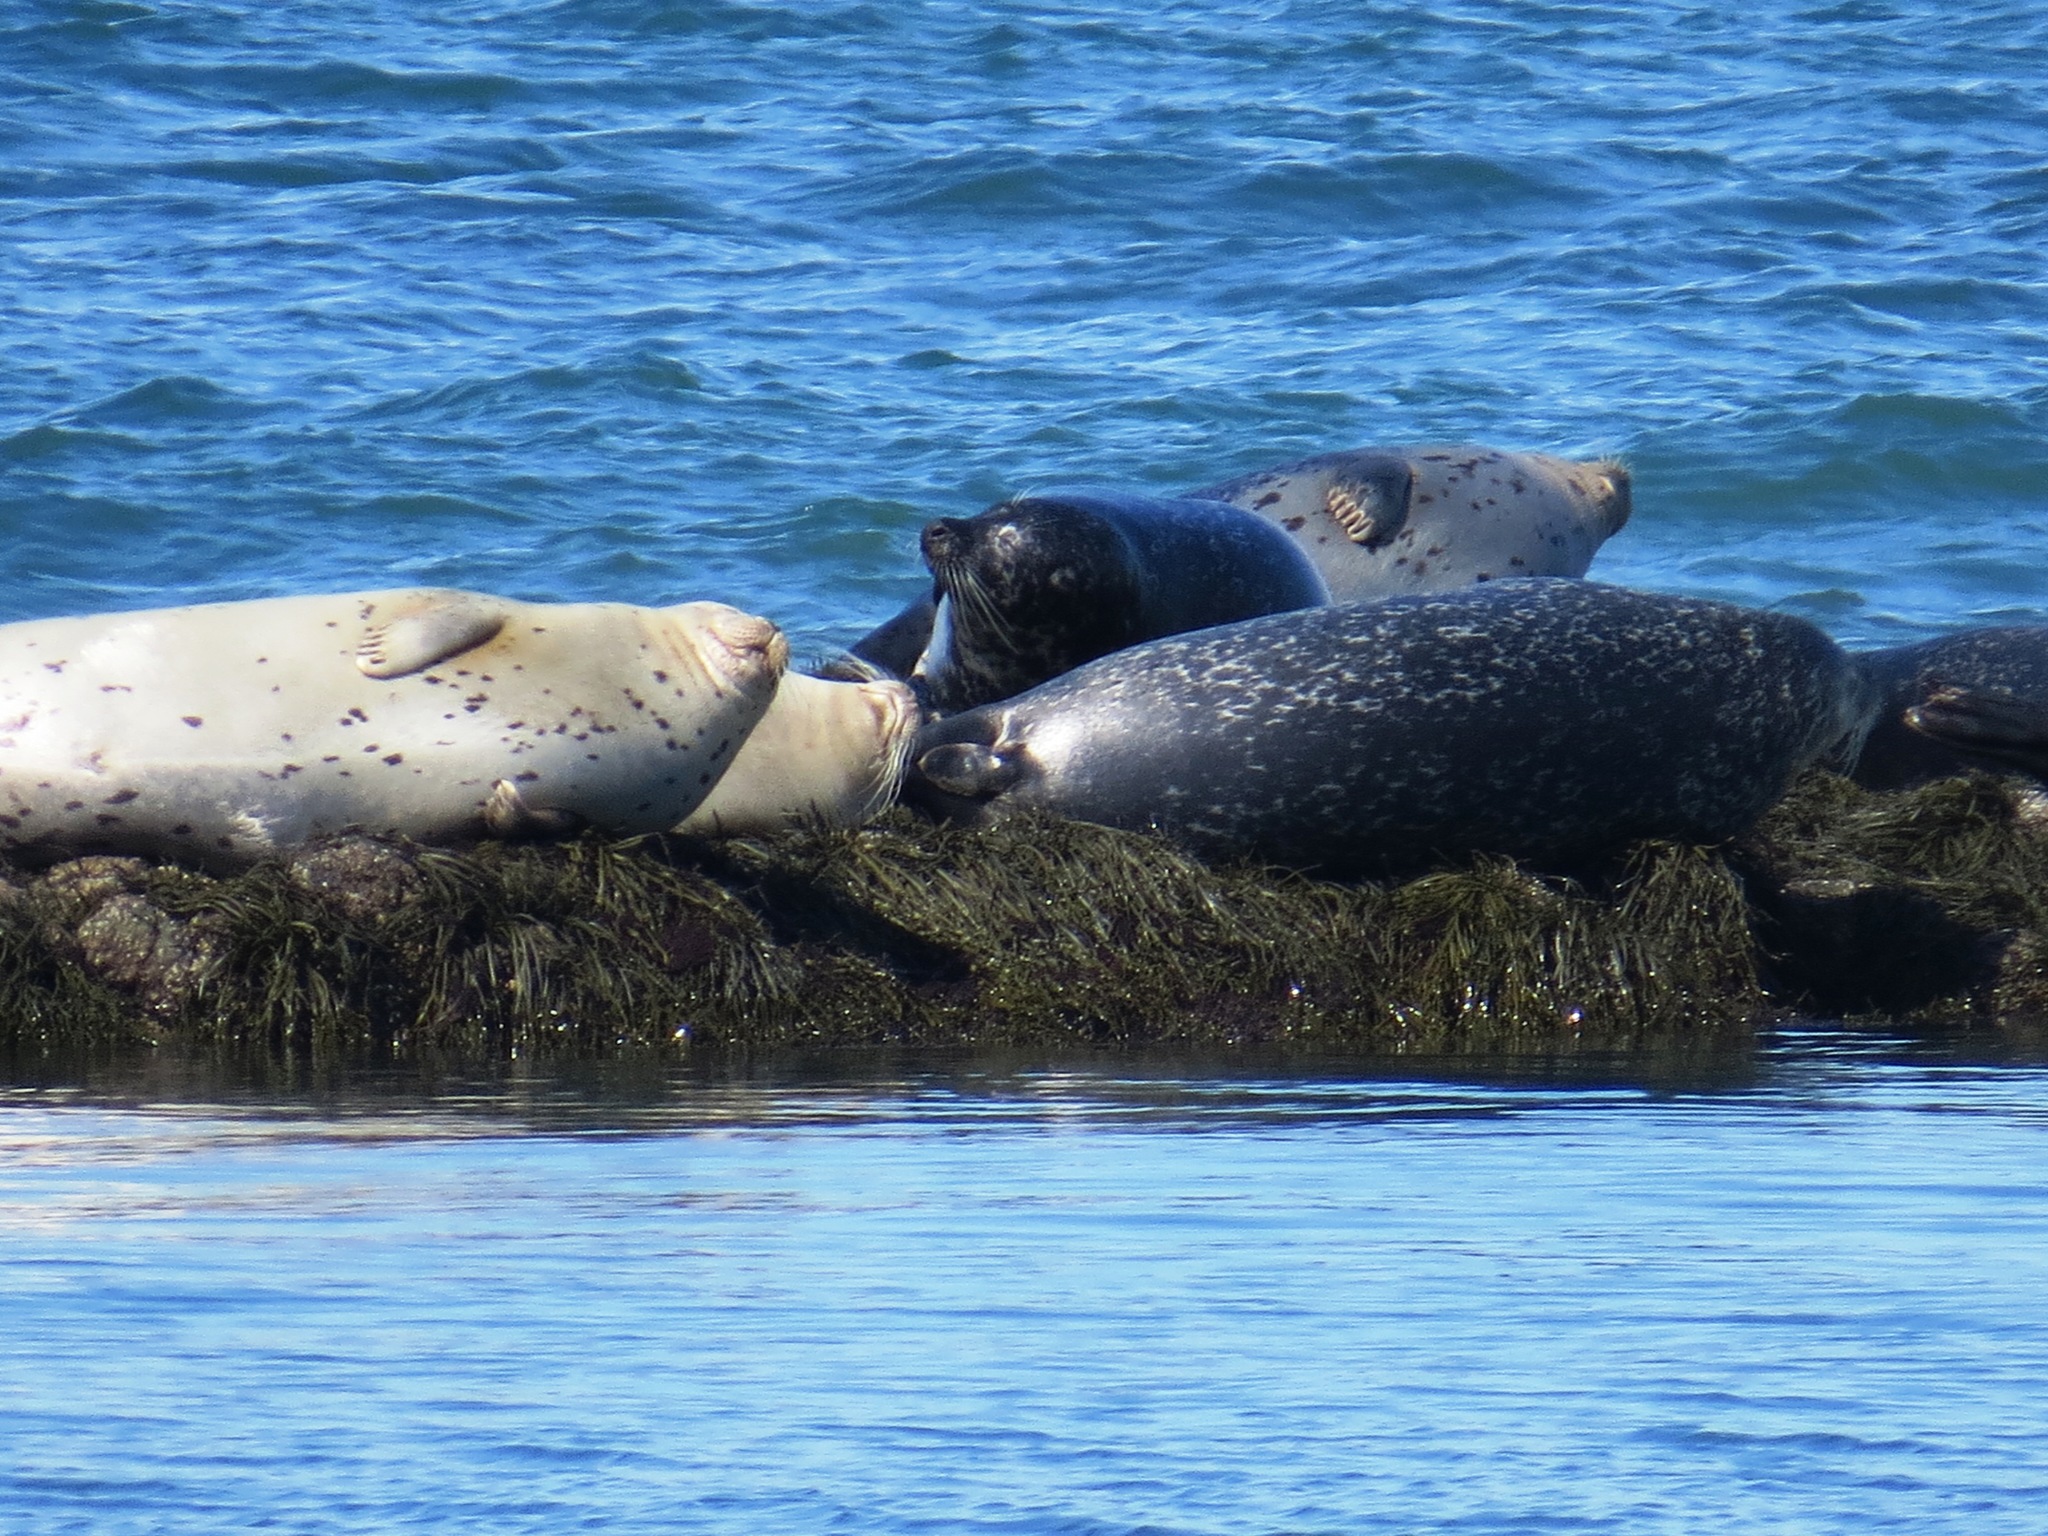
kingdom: Animalia
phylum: Chordata
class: Mammalia
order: Carnivora
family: Phocidae
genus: Phoca
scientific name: Phoca vitulina
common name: Harbor seal
